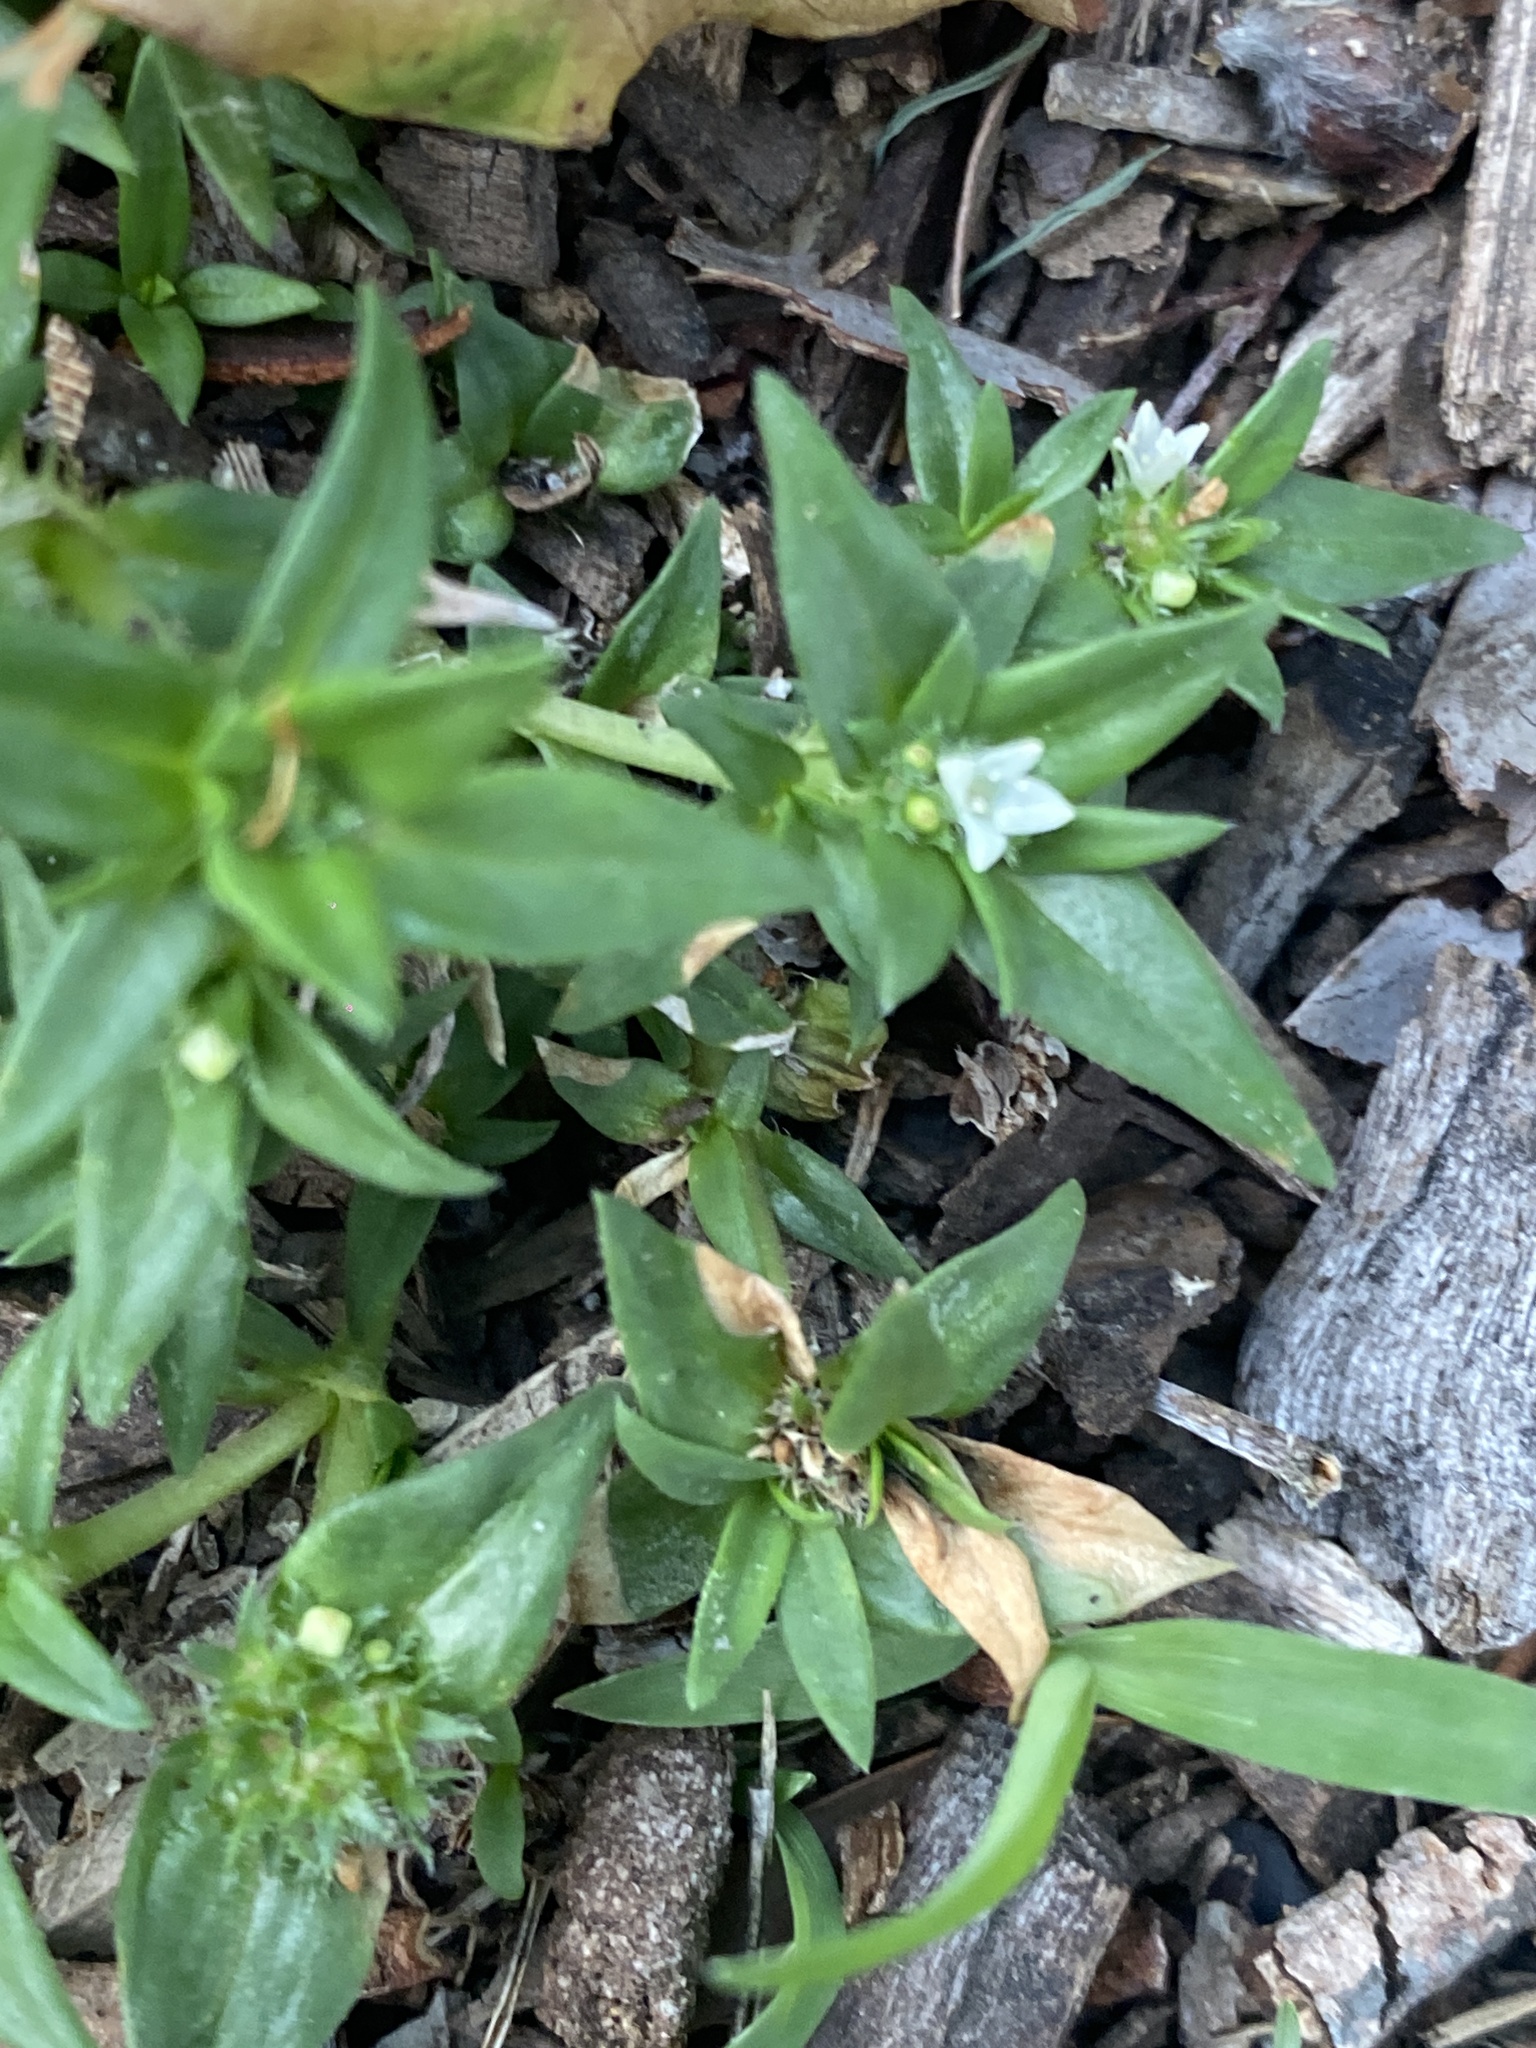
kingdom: Plantae
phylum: Tracheophyta
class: Magnoliopsida
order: Gentianales
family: Rubiaceae
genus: Richardia
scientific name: Richardia stellaris
